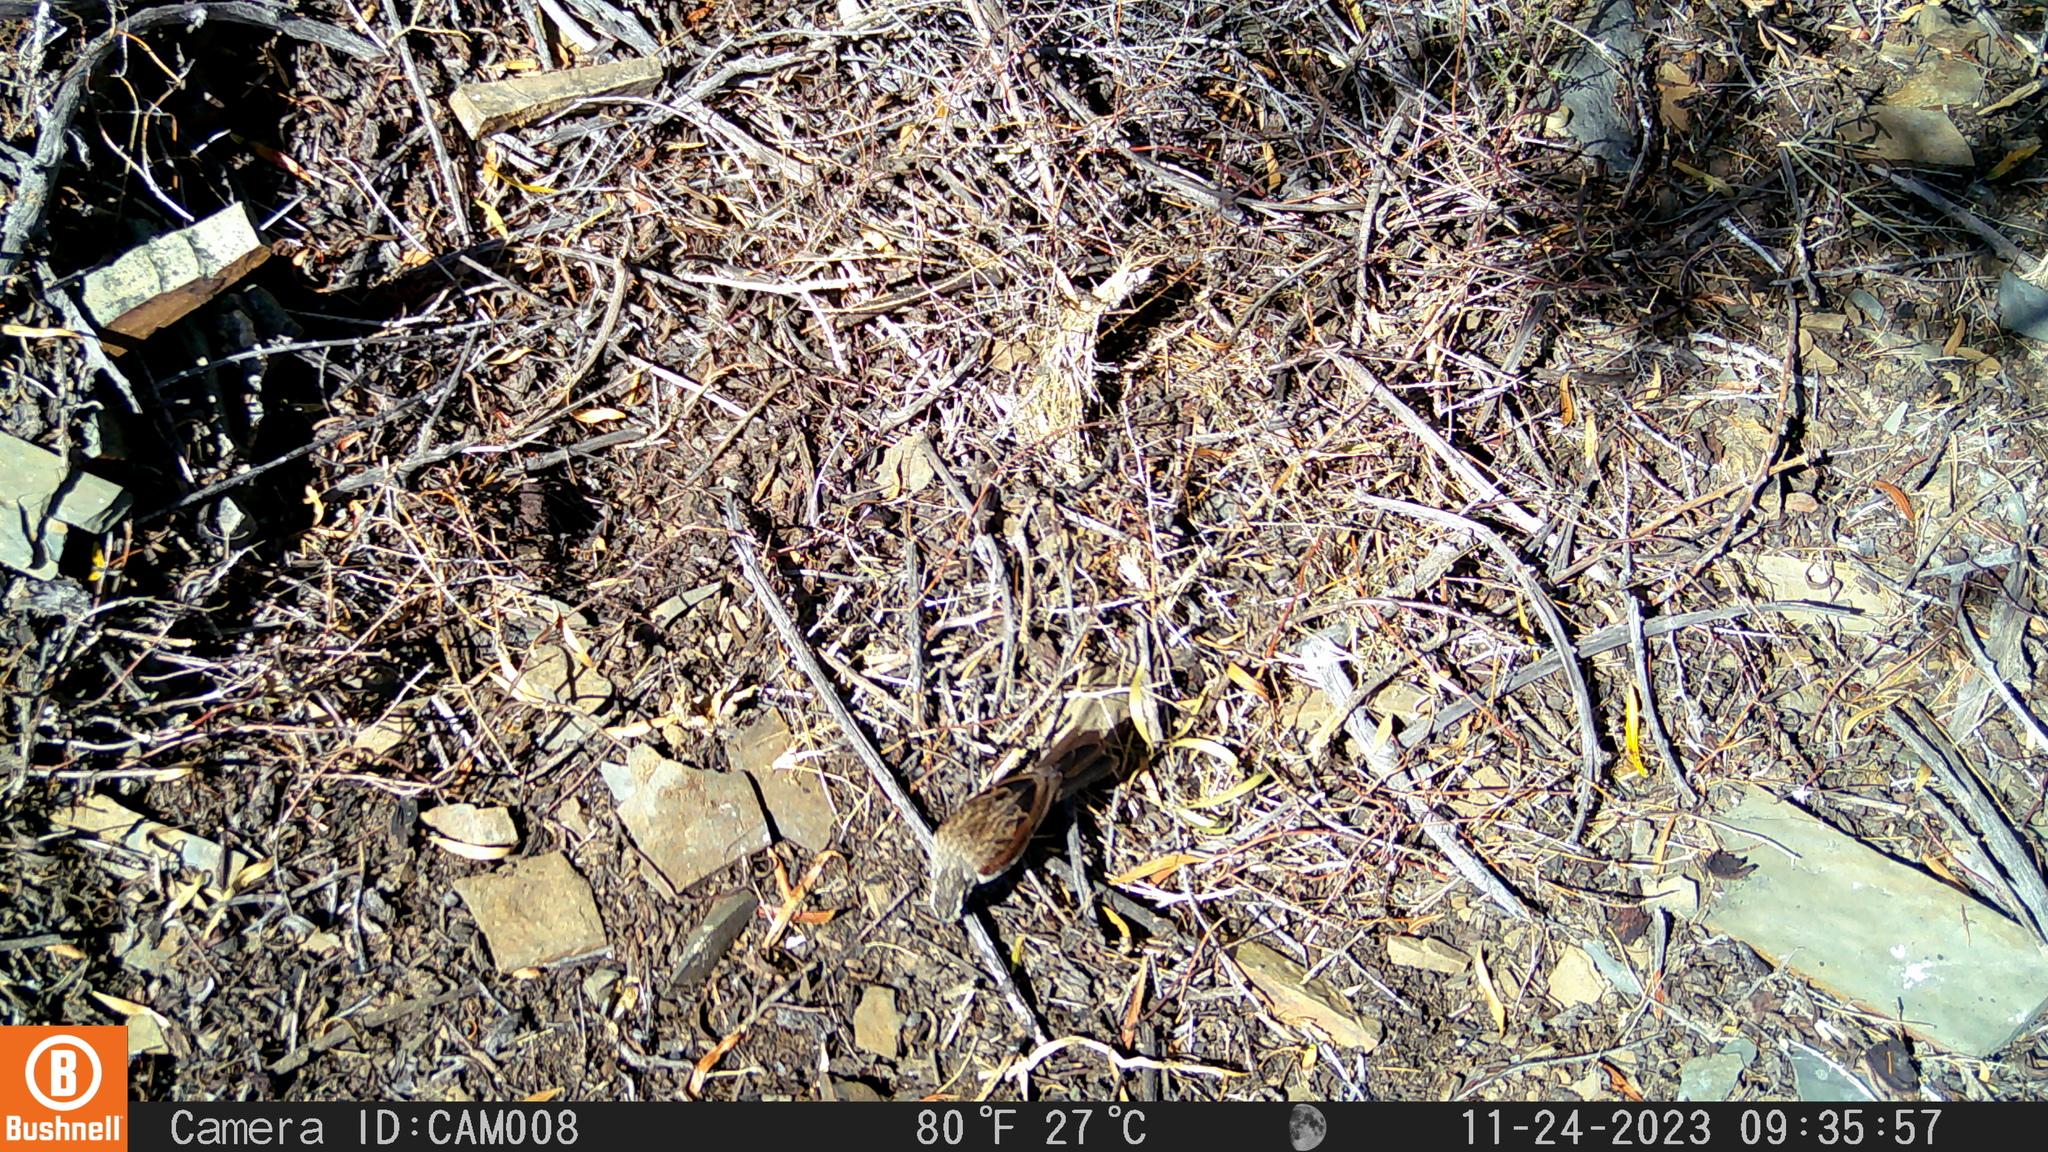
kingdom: Animalia
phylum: Chordata
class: Aves
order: Passeriformes
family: Emberizidae
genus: Emberiza
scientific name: Emberiza capensis
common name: Cape bunting
